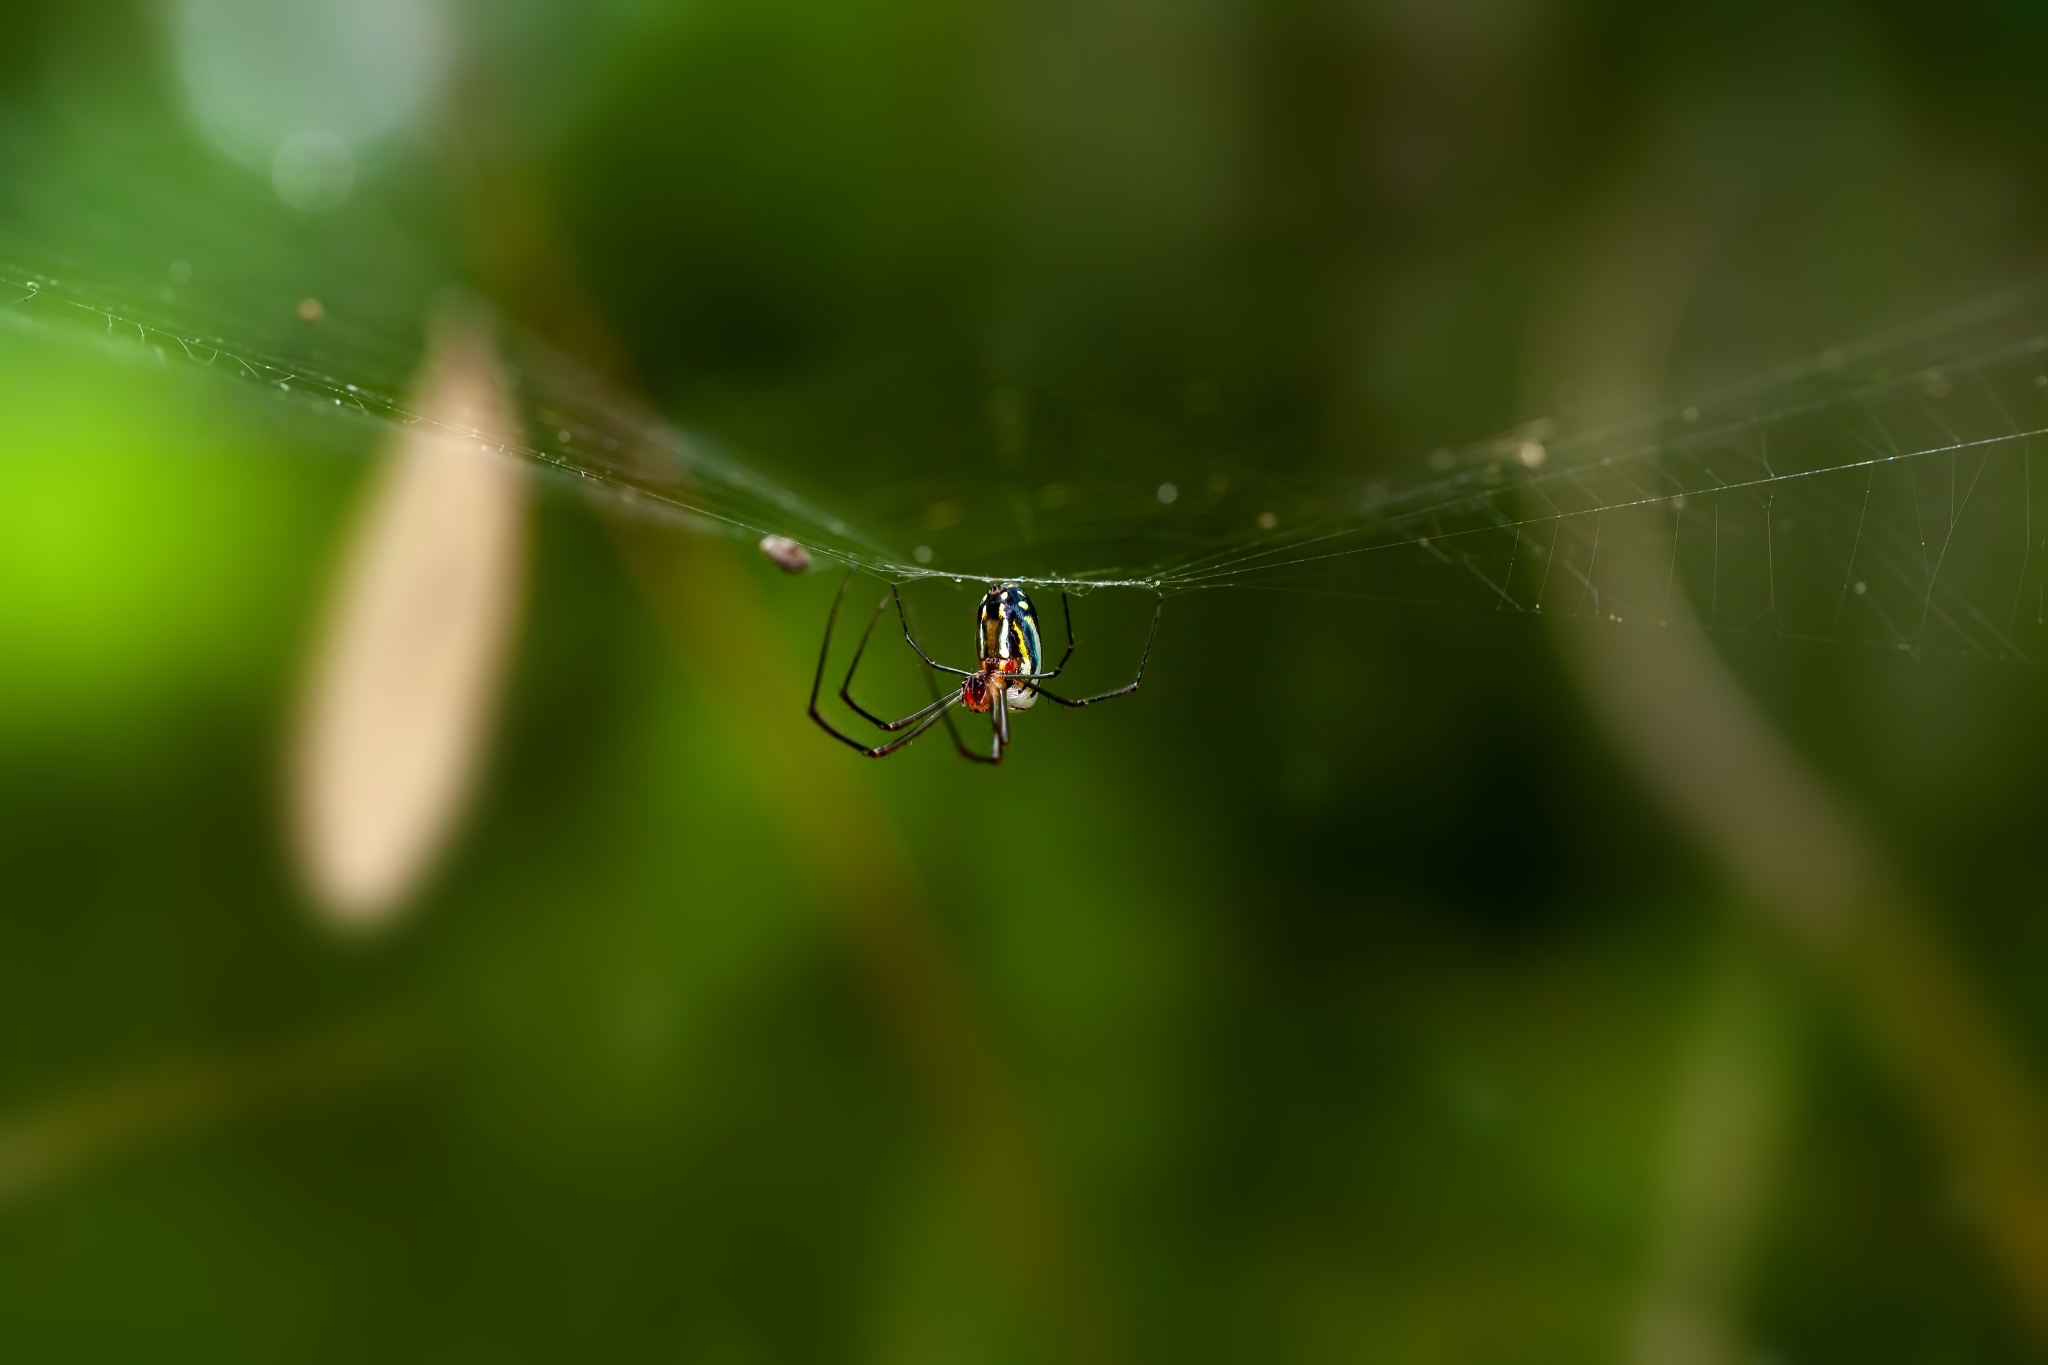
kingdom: Animalia
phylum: Arthropoda
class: Arachnida
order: Araneae
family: Tetragnathidae
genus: Leucauge
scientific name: Leucauge argyra
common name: Longjawed orb weavers
